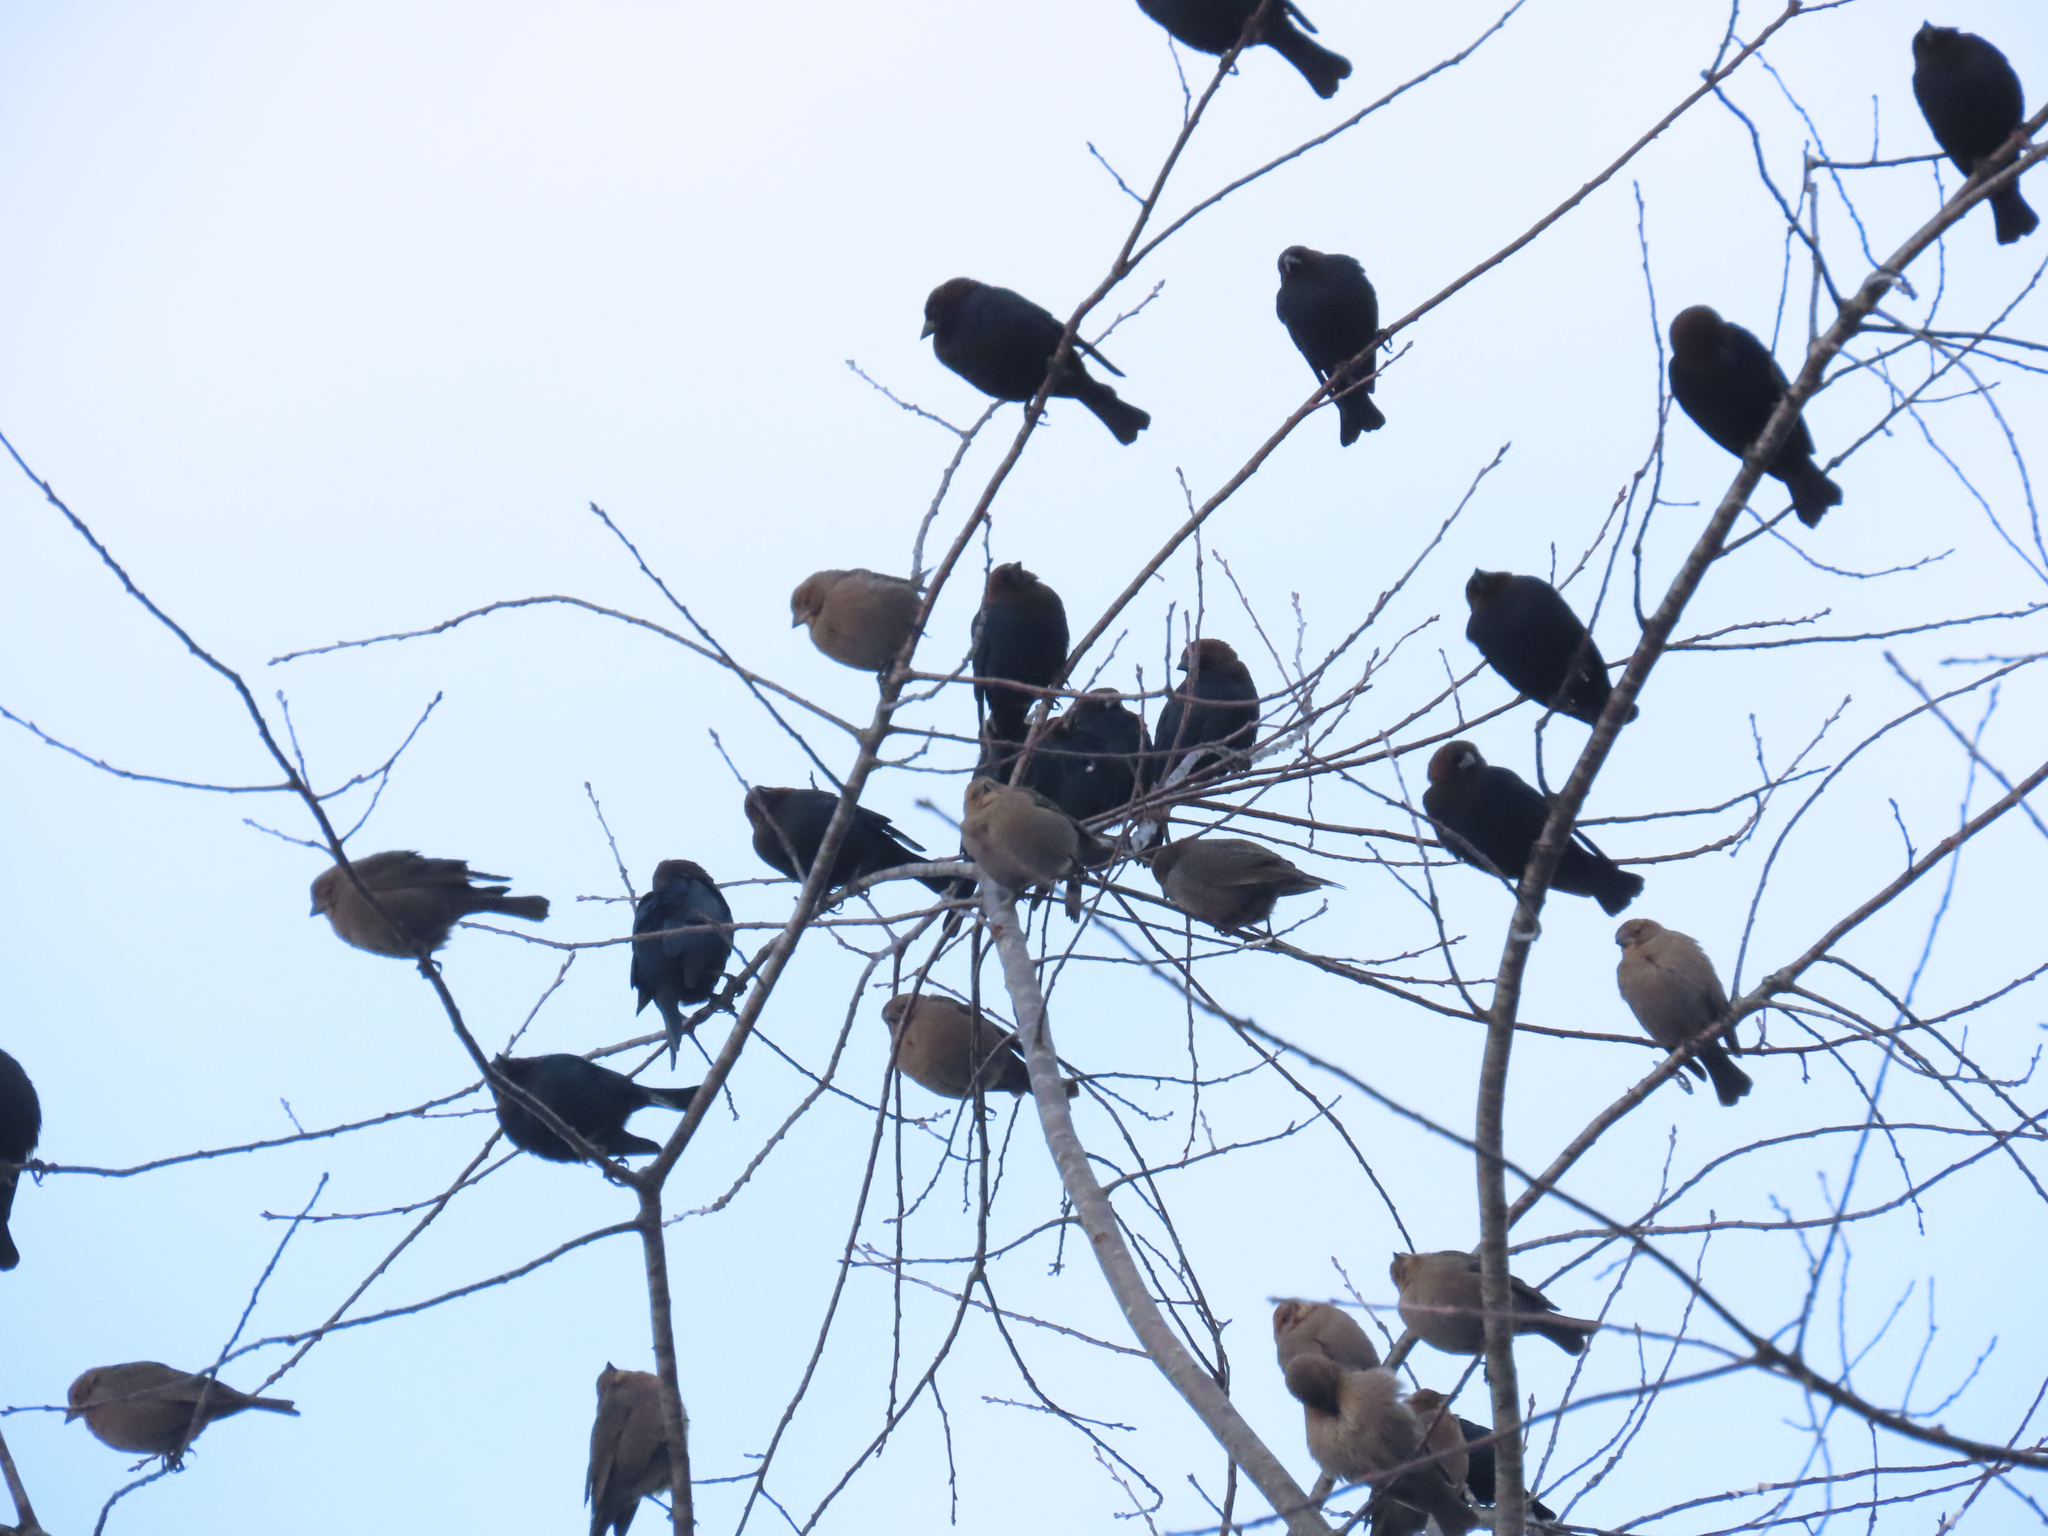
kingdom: Animalia
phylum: Chordata
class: Aves
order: Passeriformes
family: Icteridae
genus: Molothrus
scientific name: Molothrus ater
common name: Brown-headed cowbird
